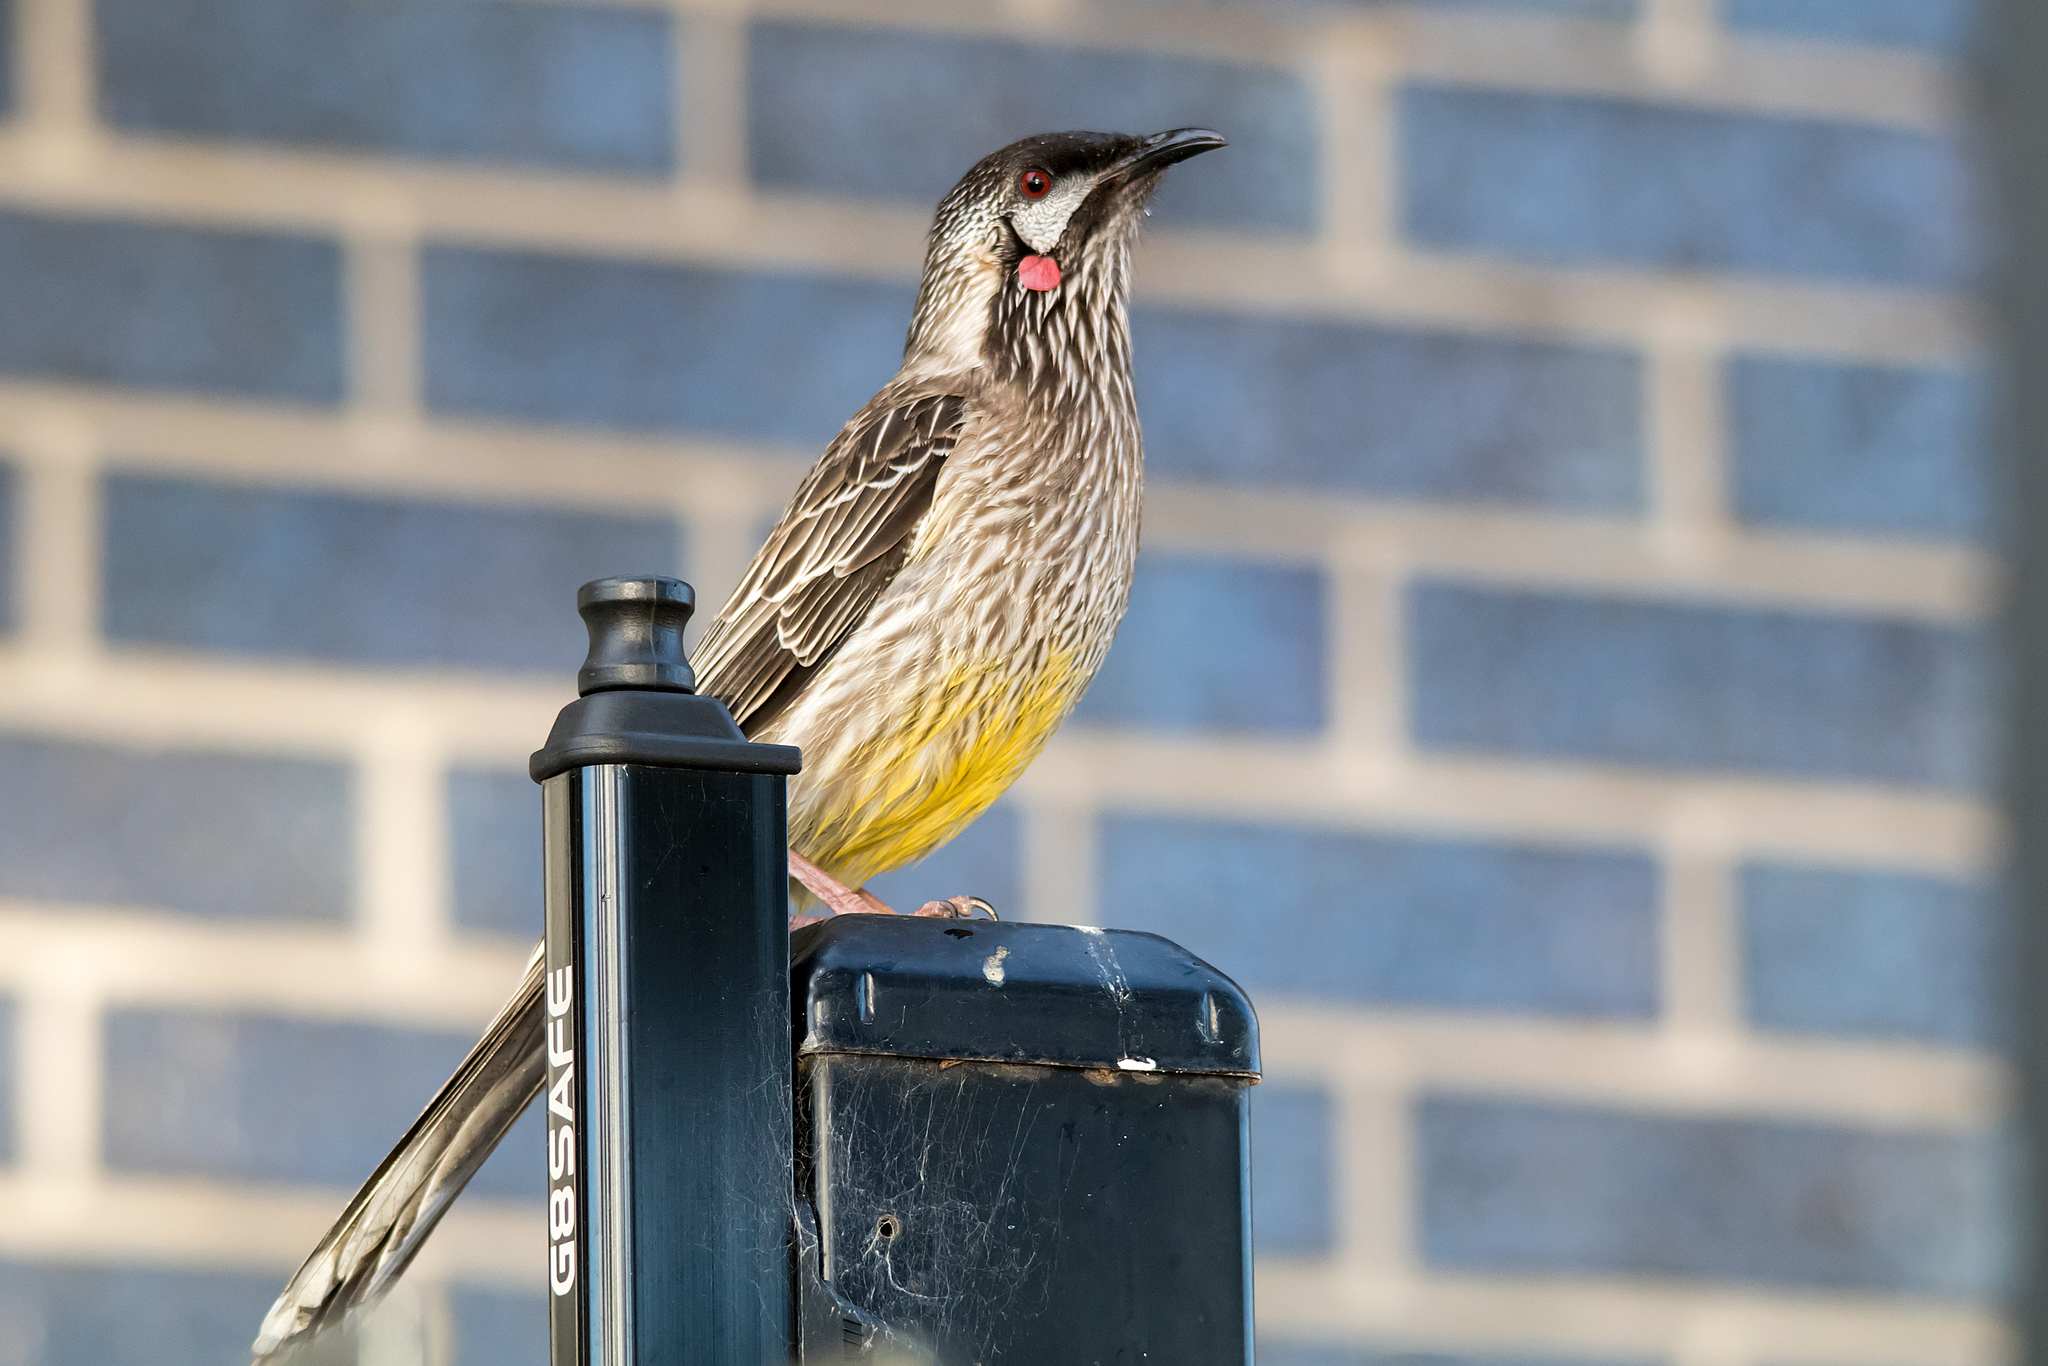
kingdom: Animalia
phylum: Chordata
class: Aves
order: Passeriformes
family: Meliphagidae
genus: Anthochaera
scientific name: Anthochaera carunculata
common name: Red wattlebird
